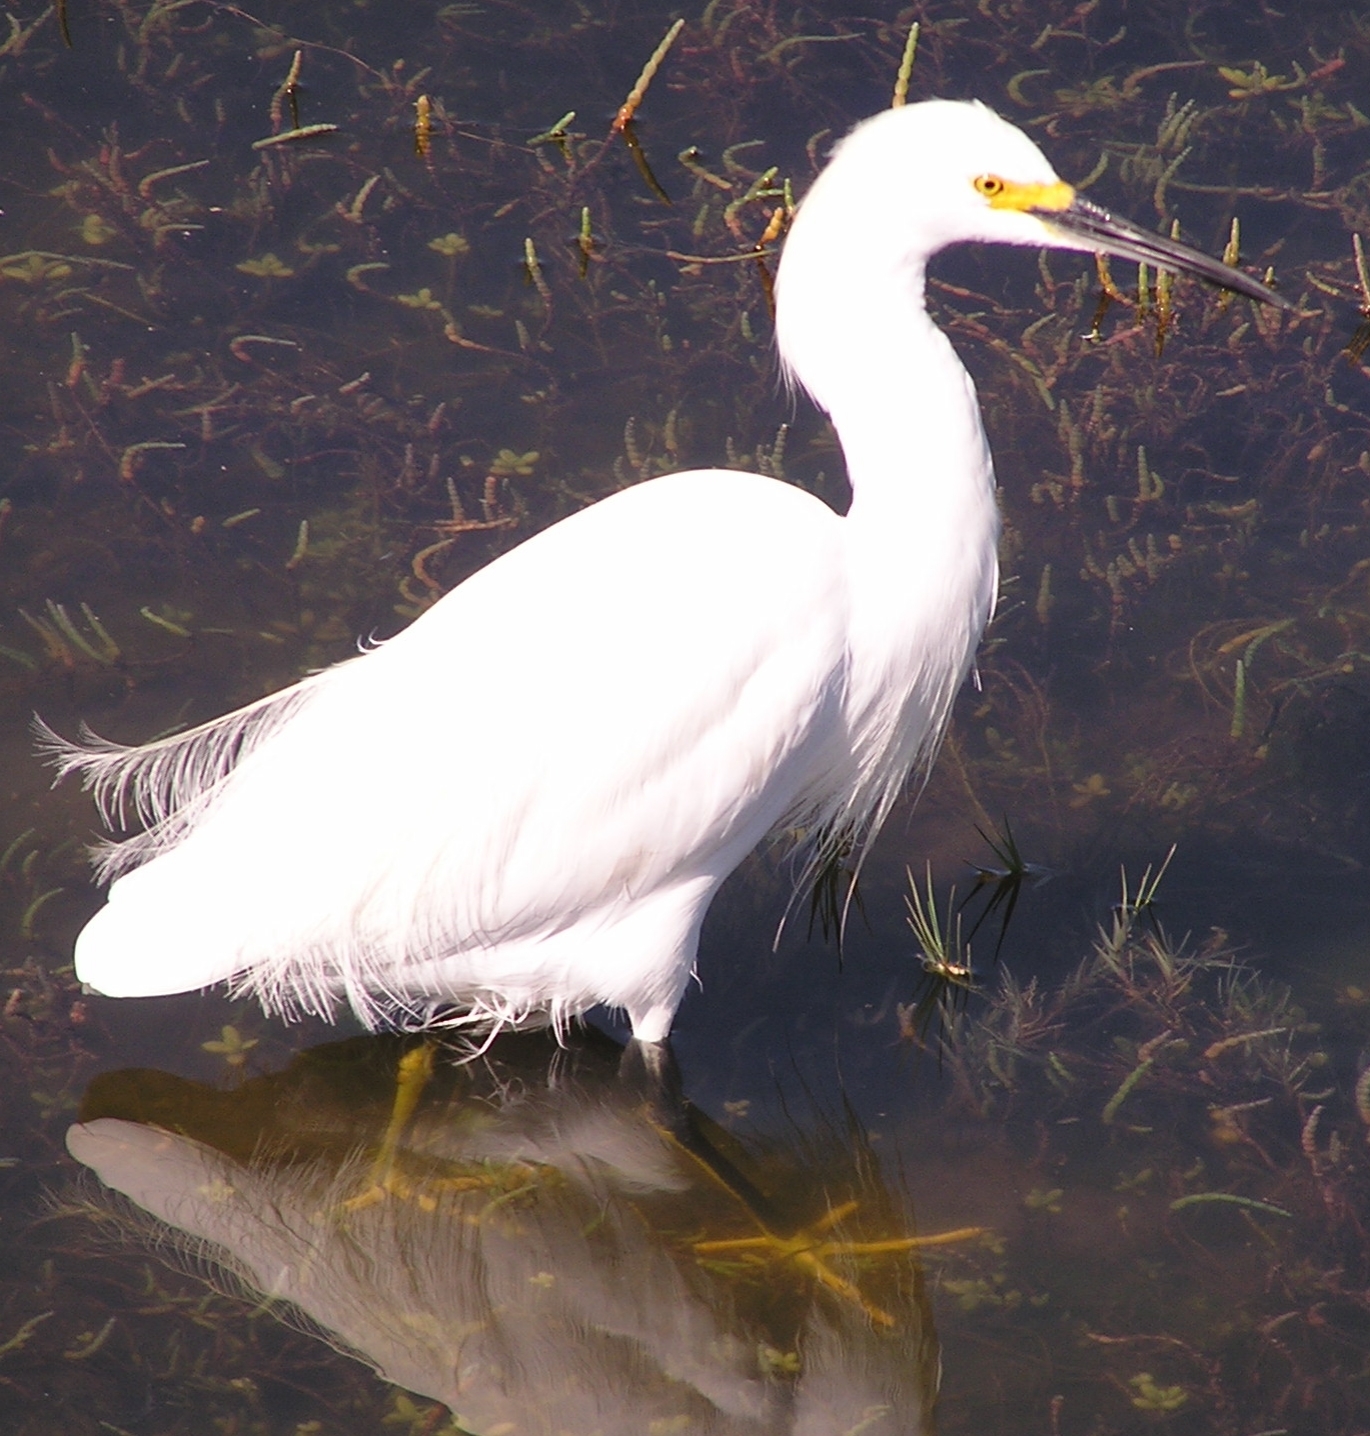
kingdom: Animalia
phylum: Chordata
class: Aves
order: Pelecaniformes
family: Ardeidae
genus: Egretta
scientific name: Egretta thula
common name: Snowy egret
